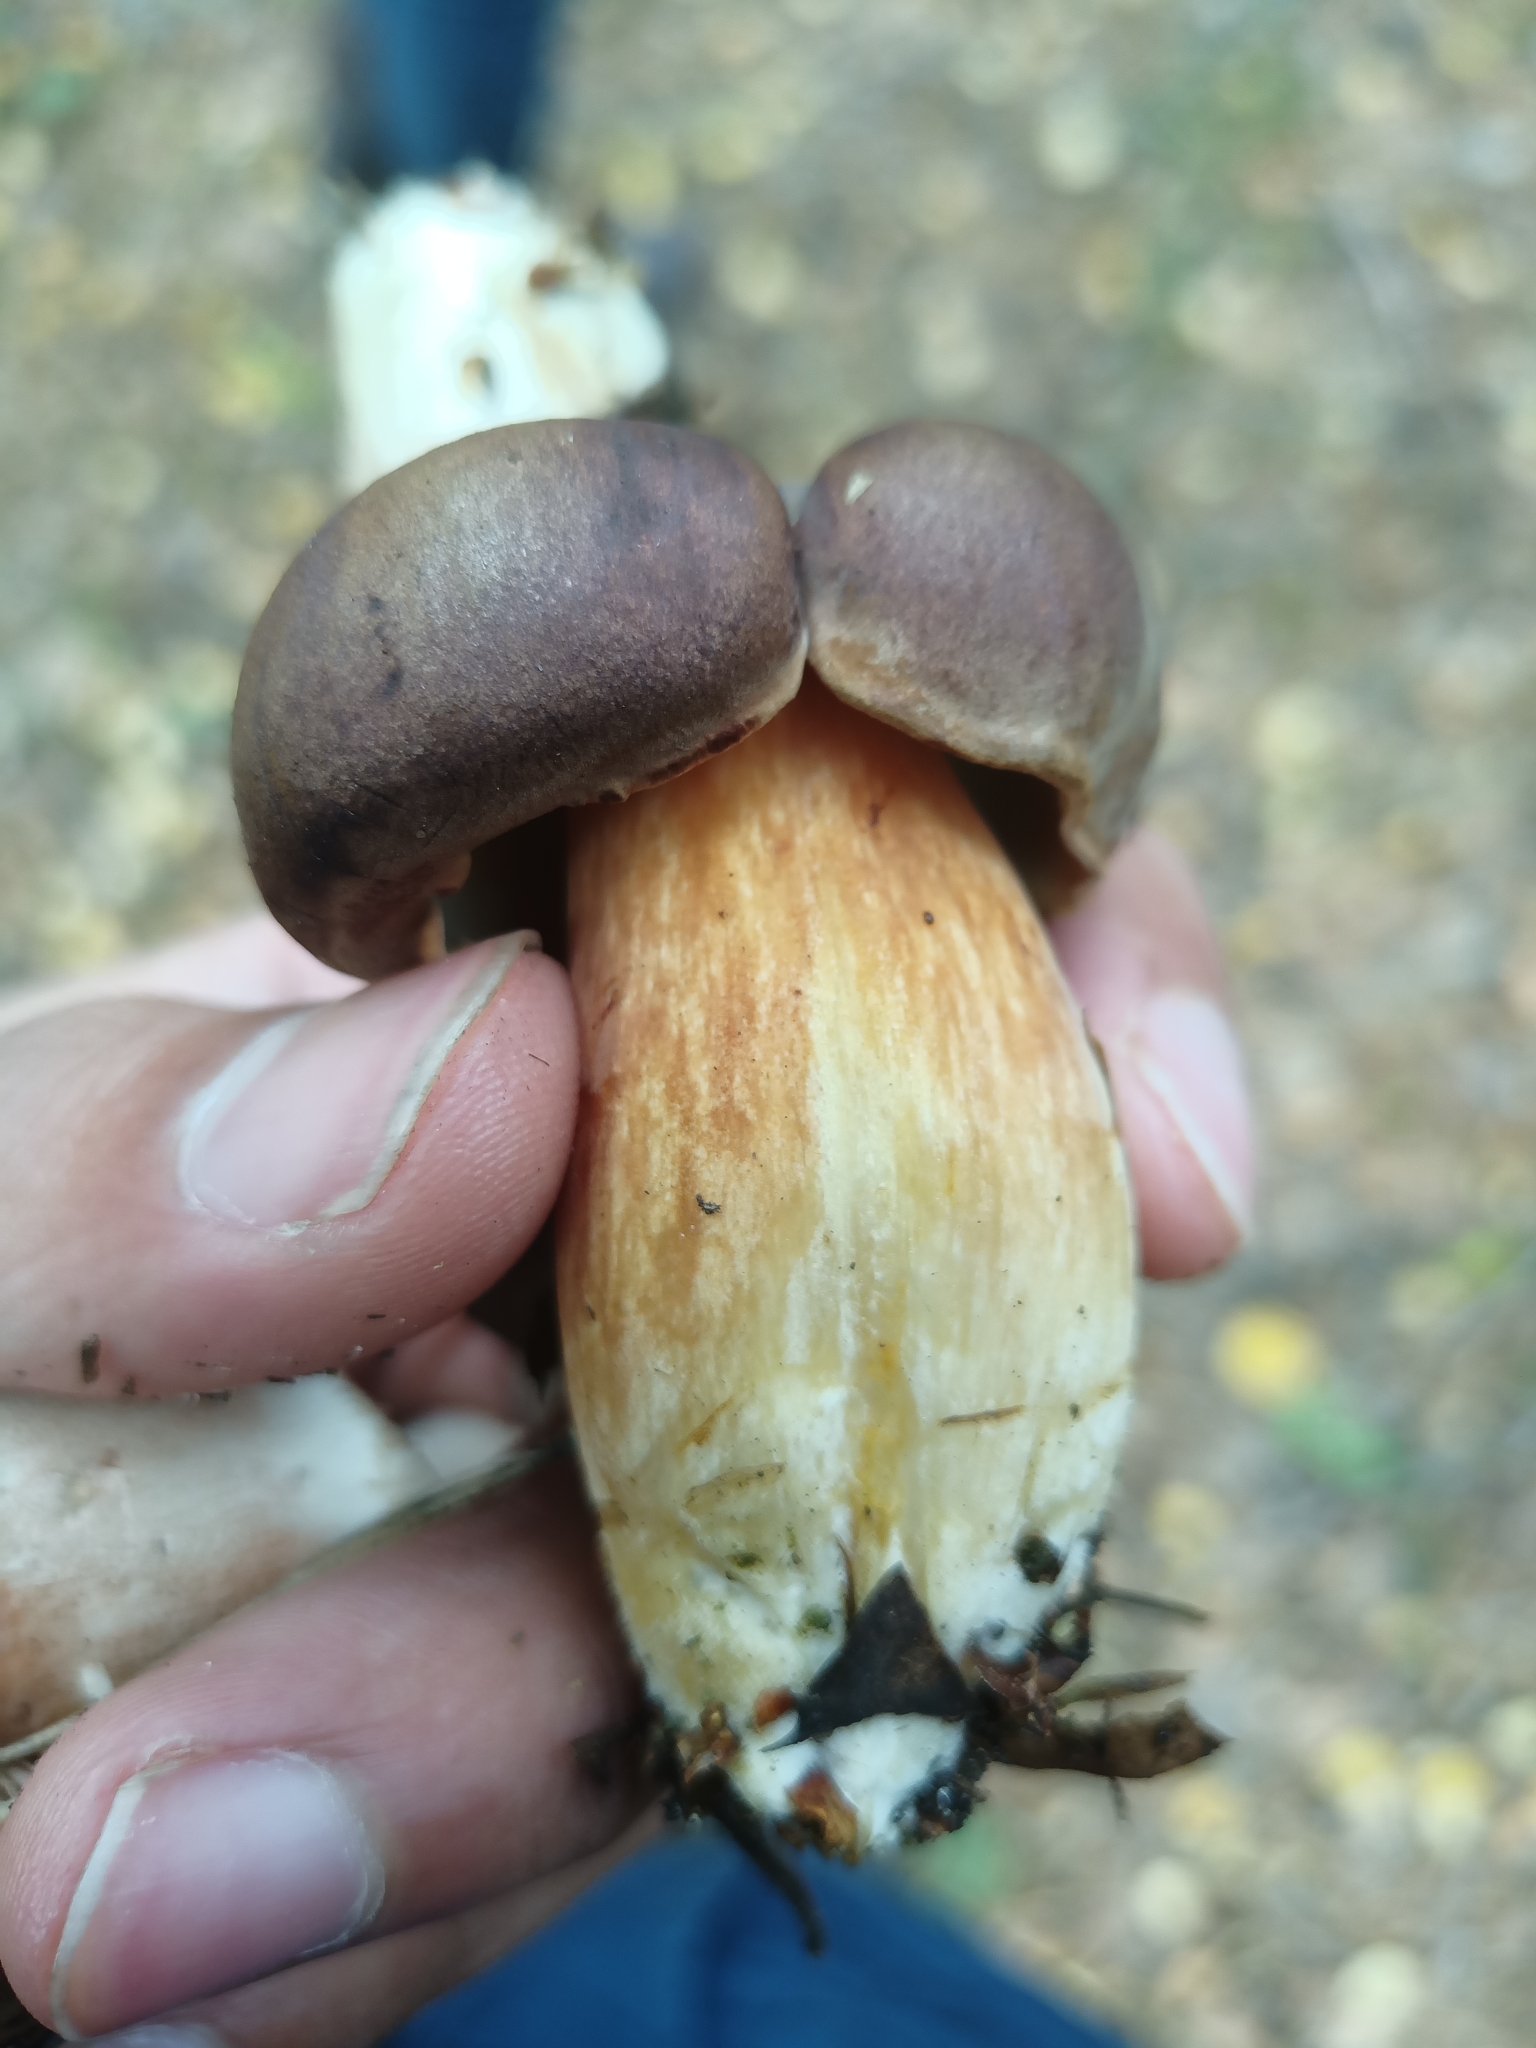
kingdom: Fungi
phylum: Basidiomycota
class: Agaricomycetes
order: Boletales
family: Boletaceae
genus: Imleria
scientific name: Imleria badia
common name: Bay bolete
